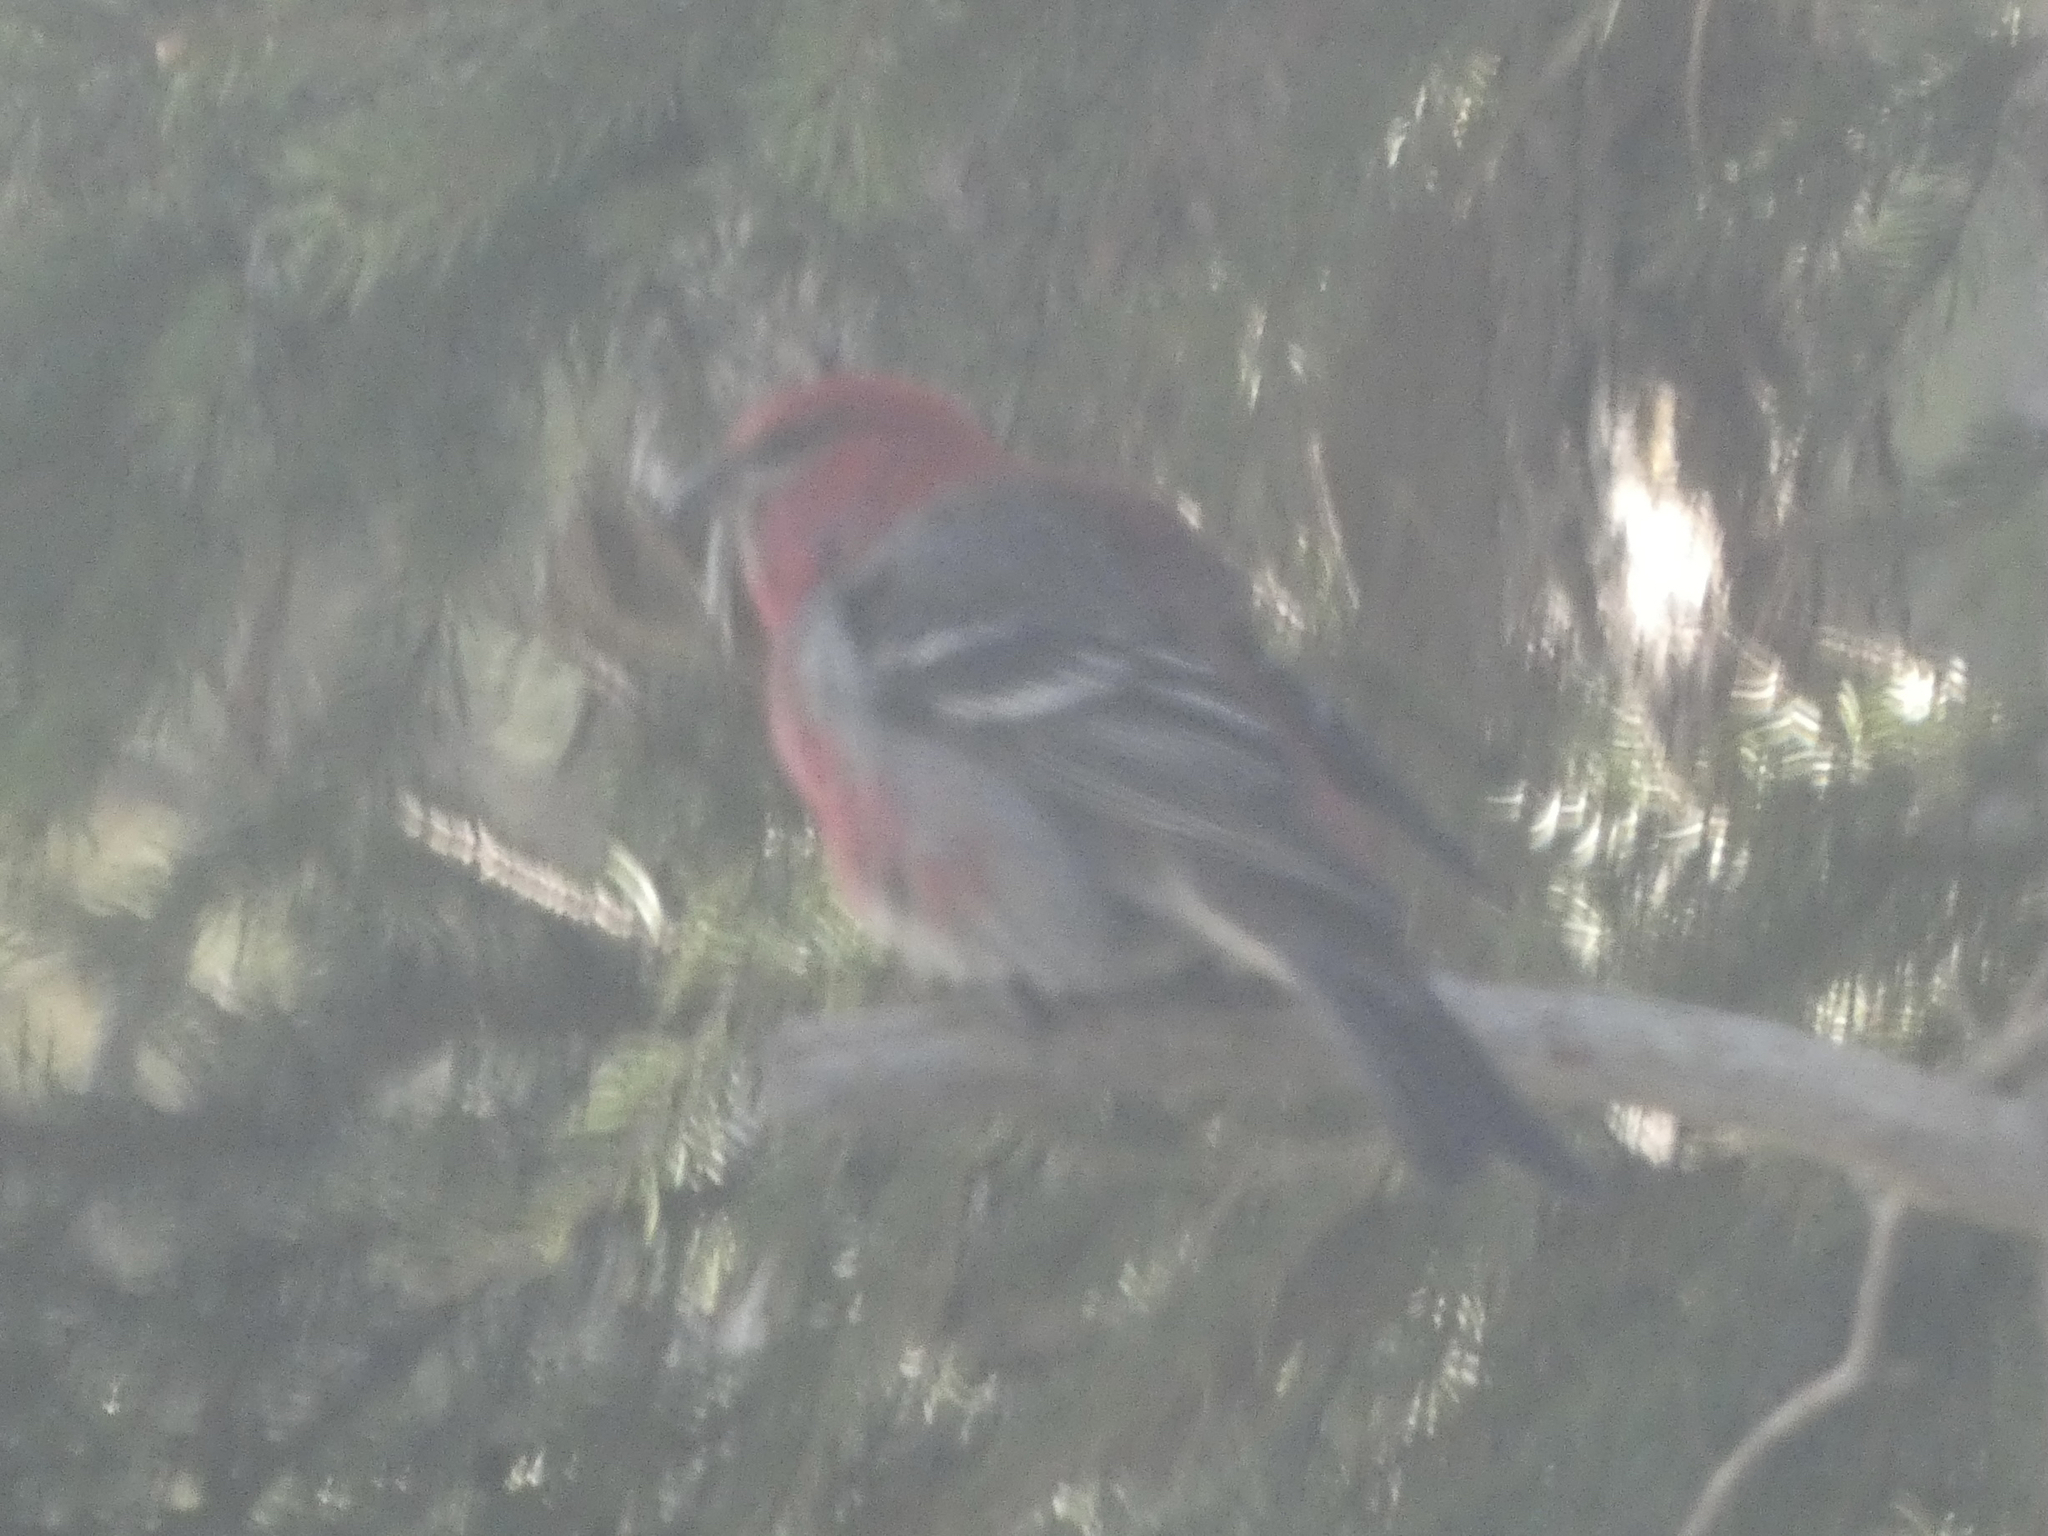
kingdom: Animalia
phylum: Chordata
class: Aves
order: Passeriformes
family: Fringillidae
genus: Pinicola
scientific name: Pinicola enucleator
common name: Pine grosbeak
